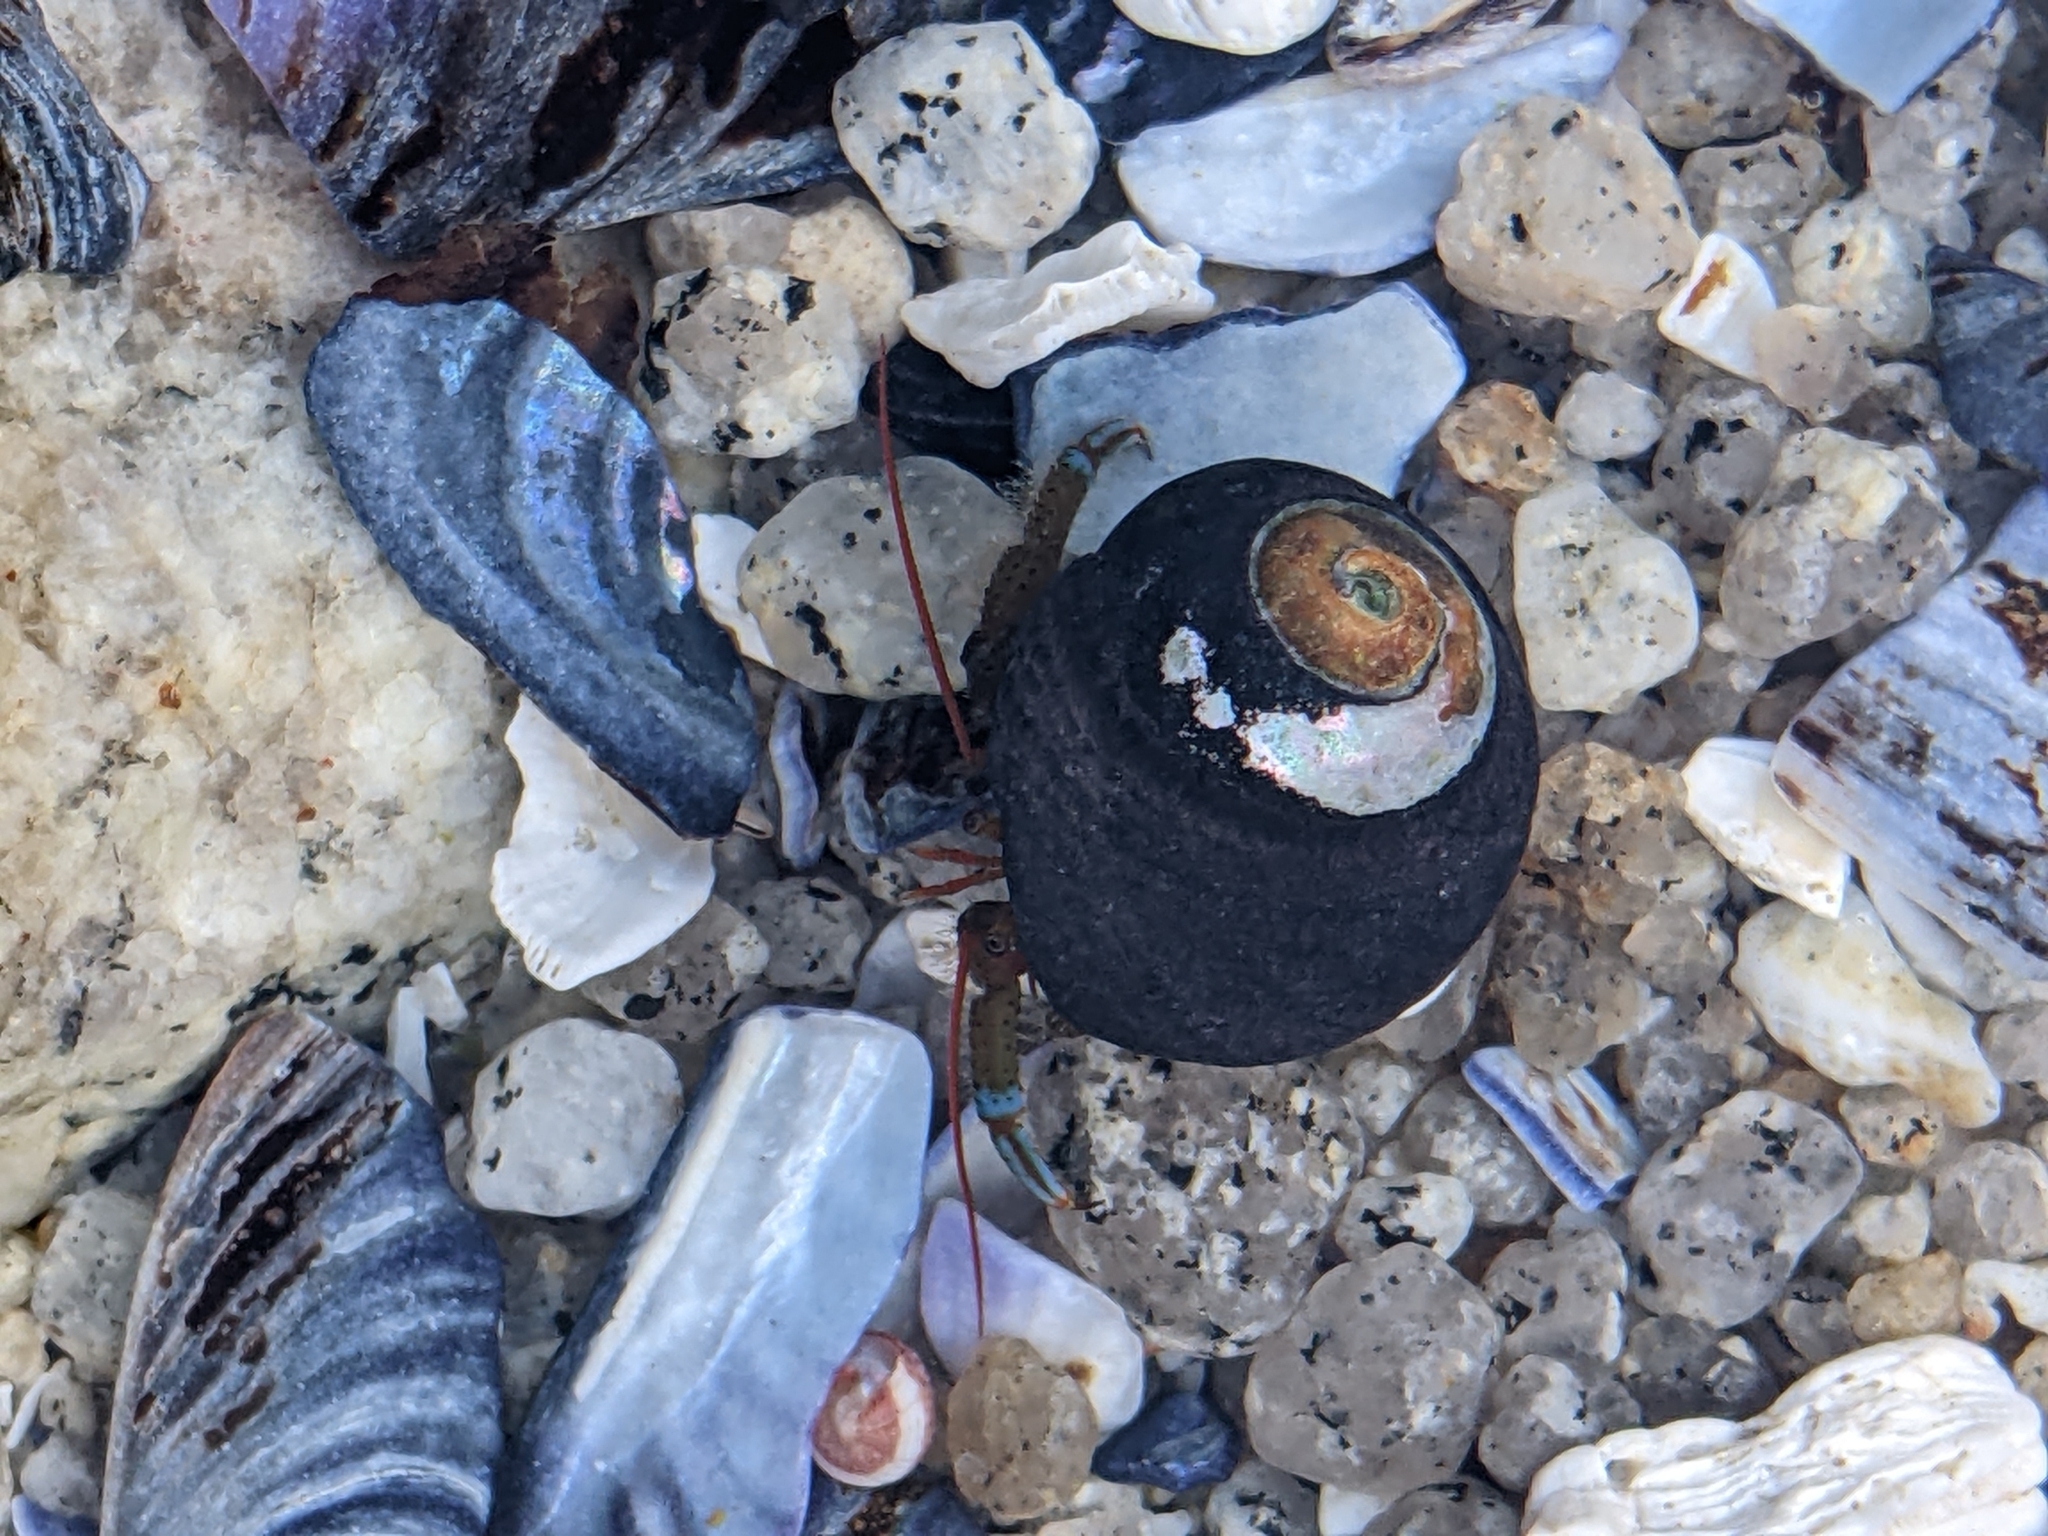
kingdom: Animalia
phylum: Arthropoda
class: Malacostraca
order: Decapoda
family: Paguridae
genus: Pagurus
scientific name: Pagurus samuelis
